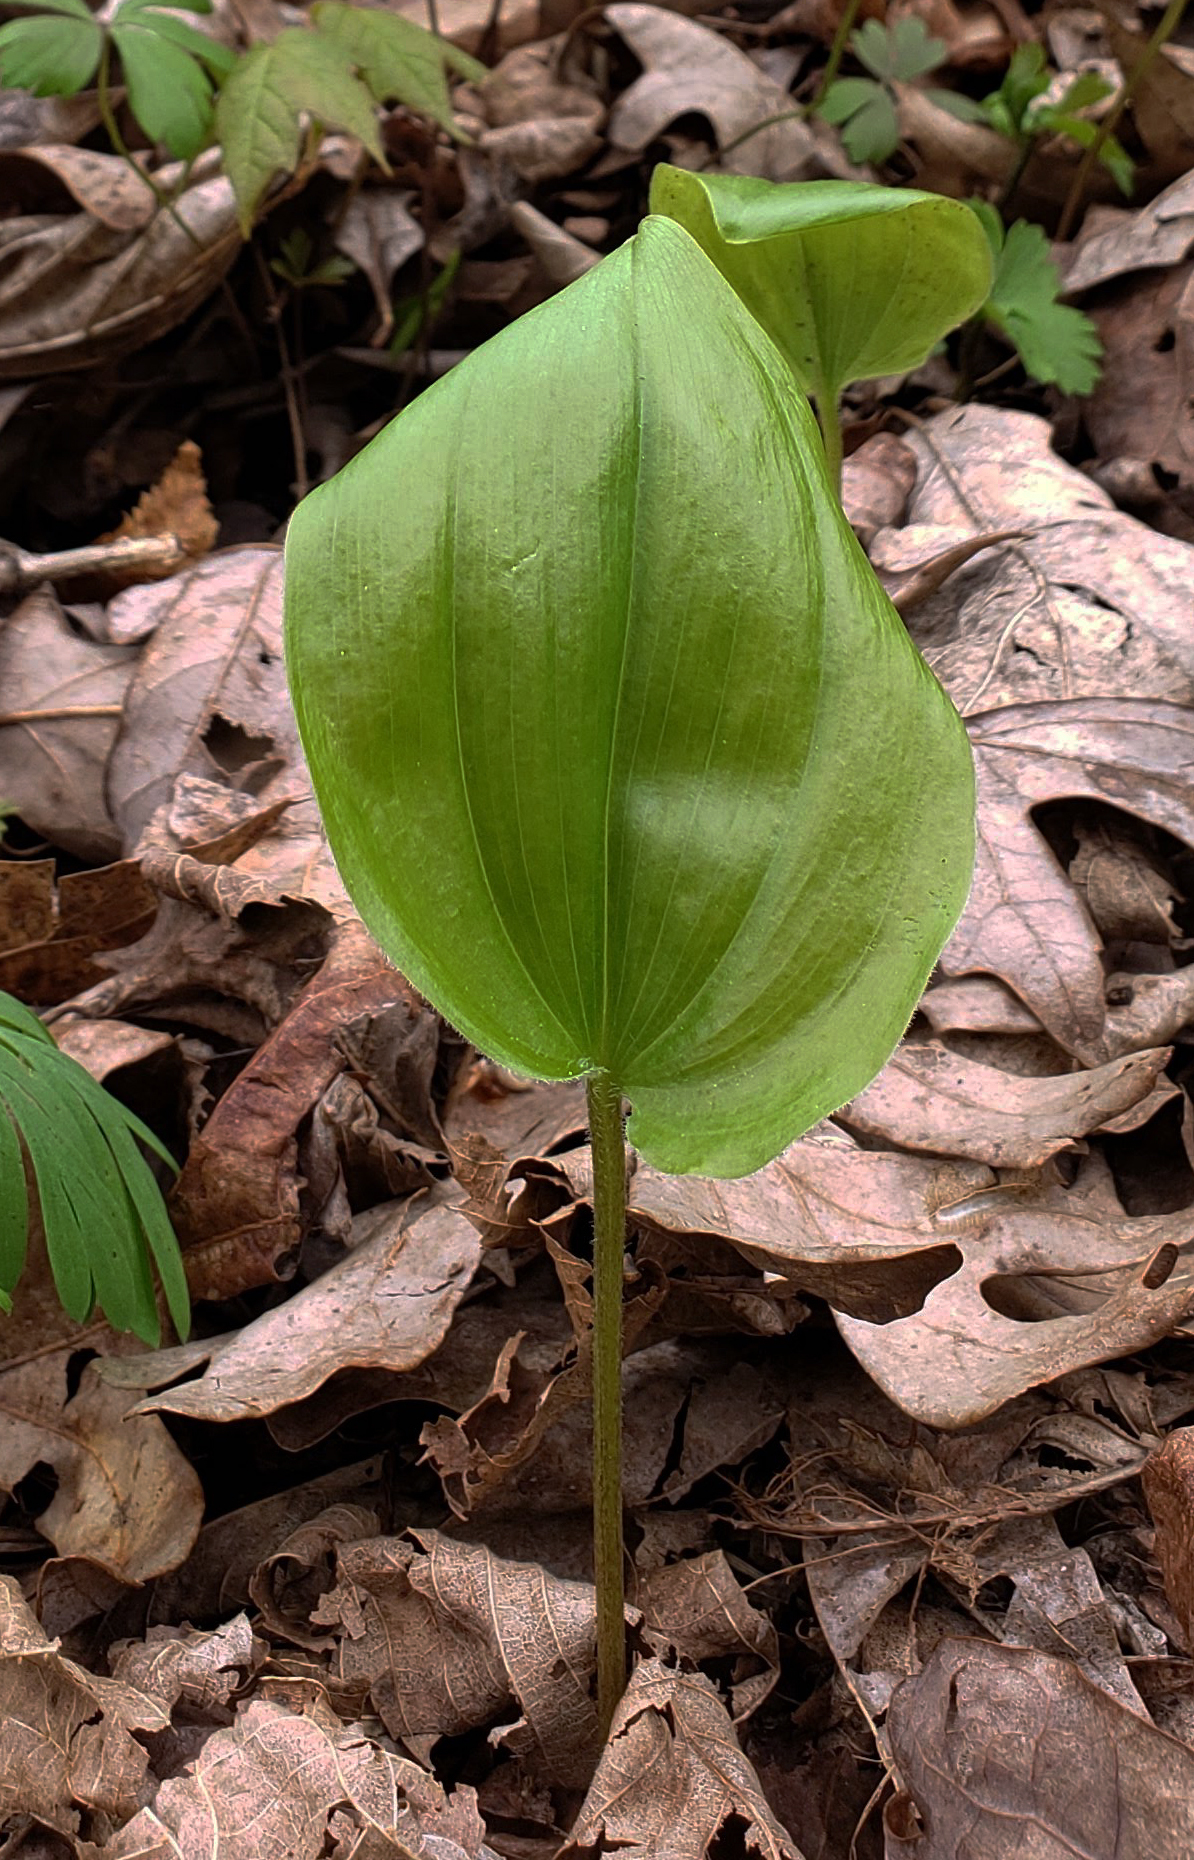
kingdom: Plantae
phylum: Tracheophyta
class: Liliopsida
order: Asparagales
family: Asparagaceae
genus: Maianthemum
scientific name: Maianthemum canadense
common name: False lily-of-the-valley
